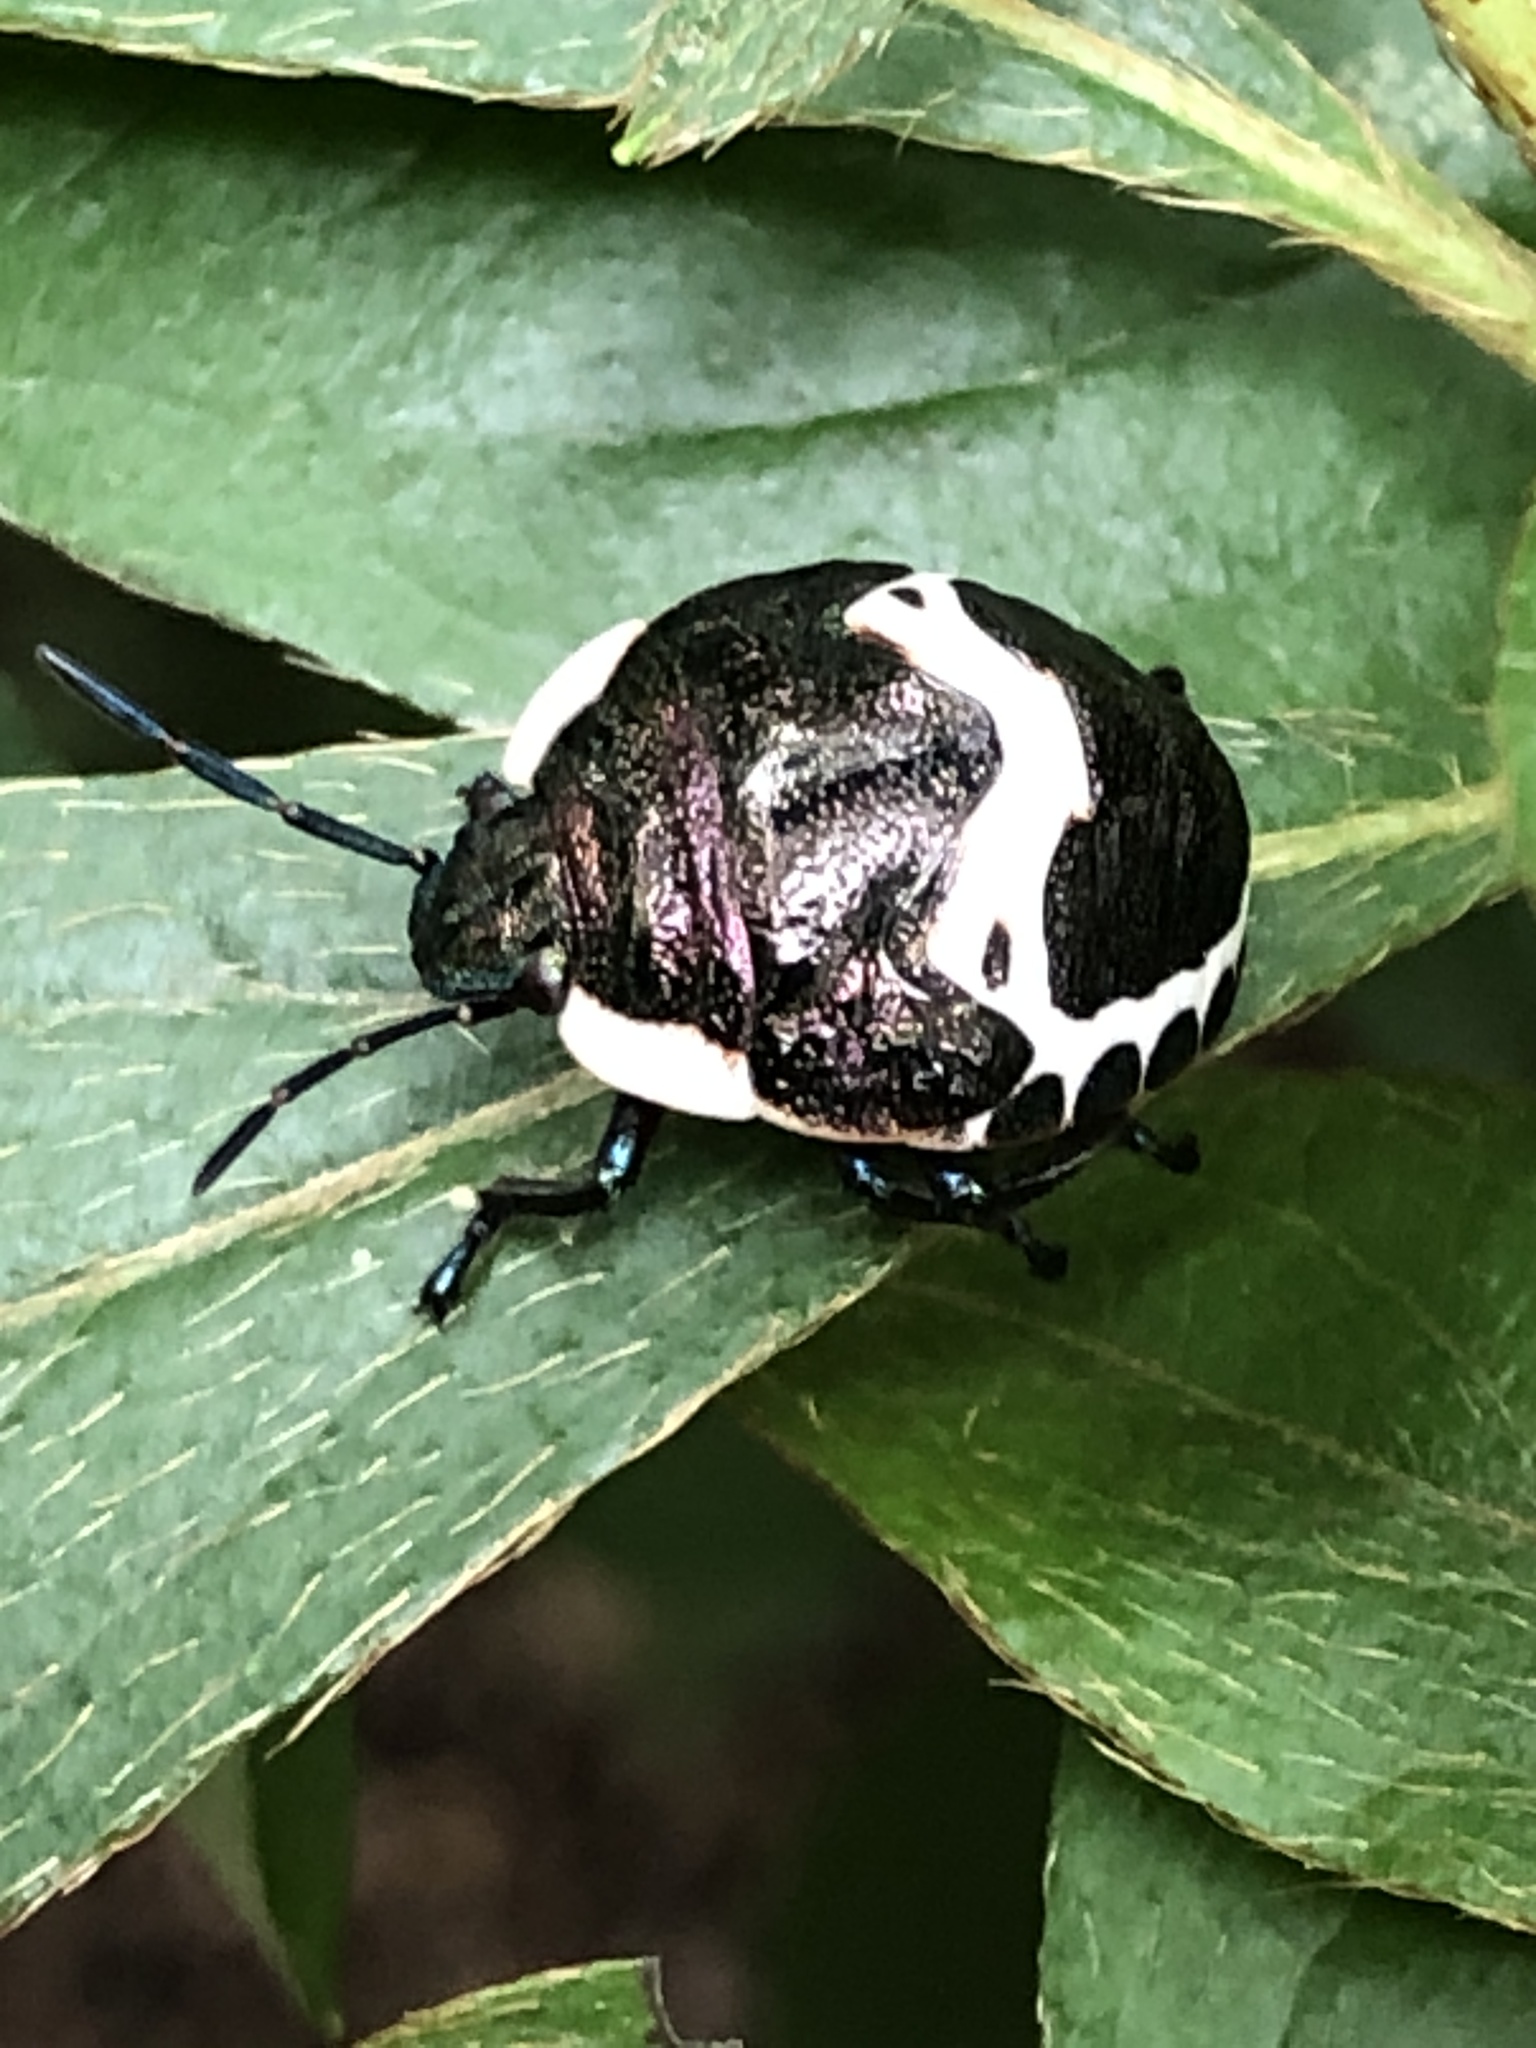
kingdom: Animalia
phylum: Arthropoda
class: Insecta
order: Hemiptera
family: Scutelleridae
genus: Poecilocoris
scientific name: Poecilocoris lewisi
